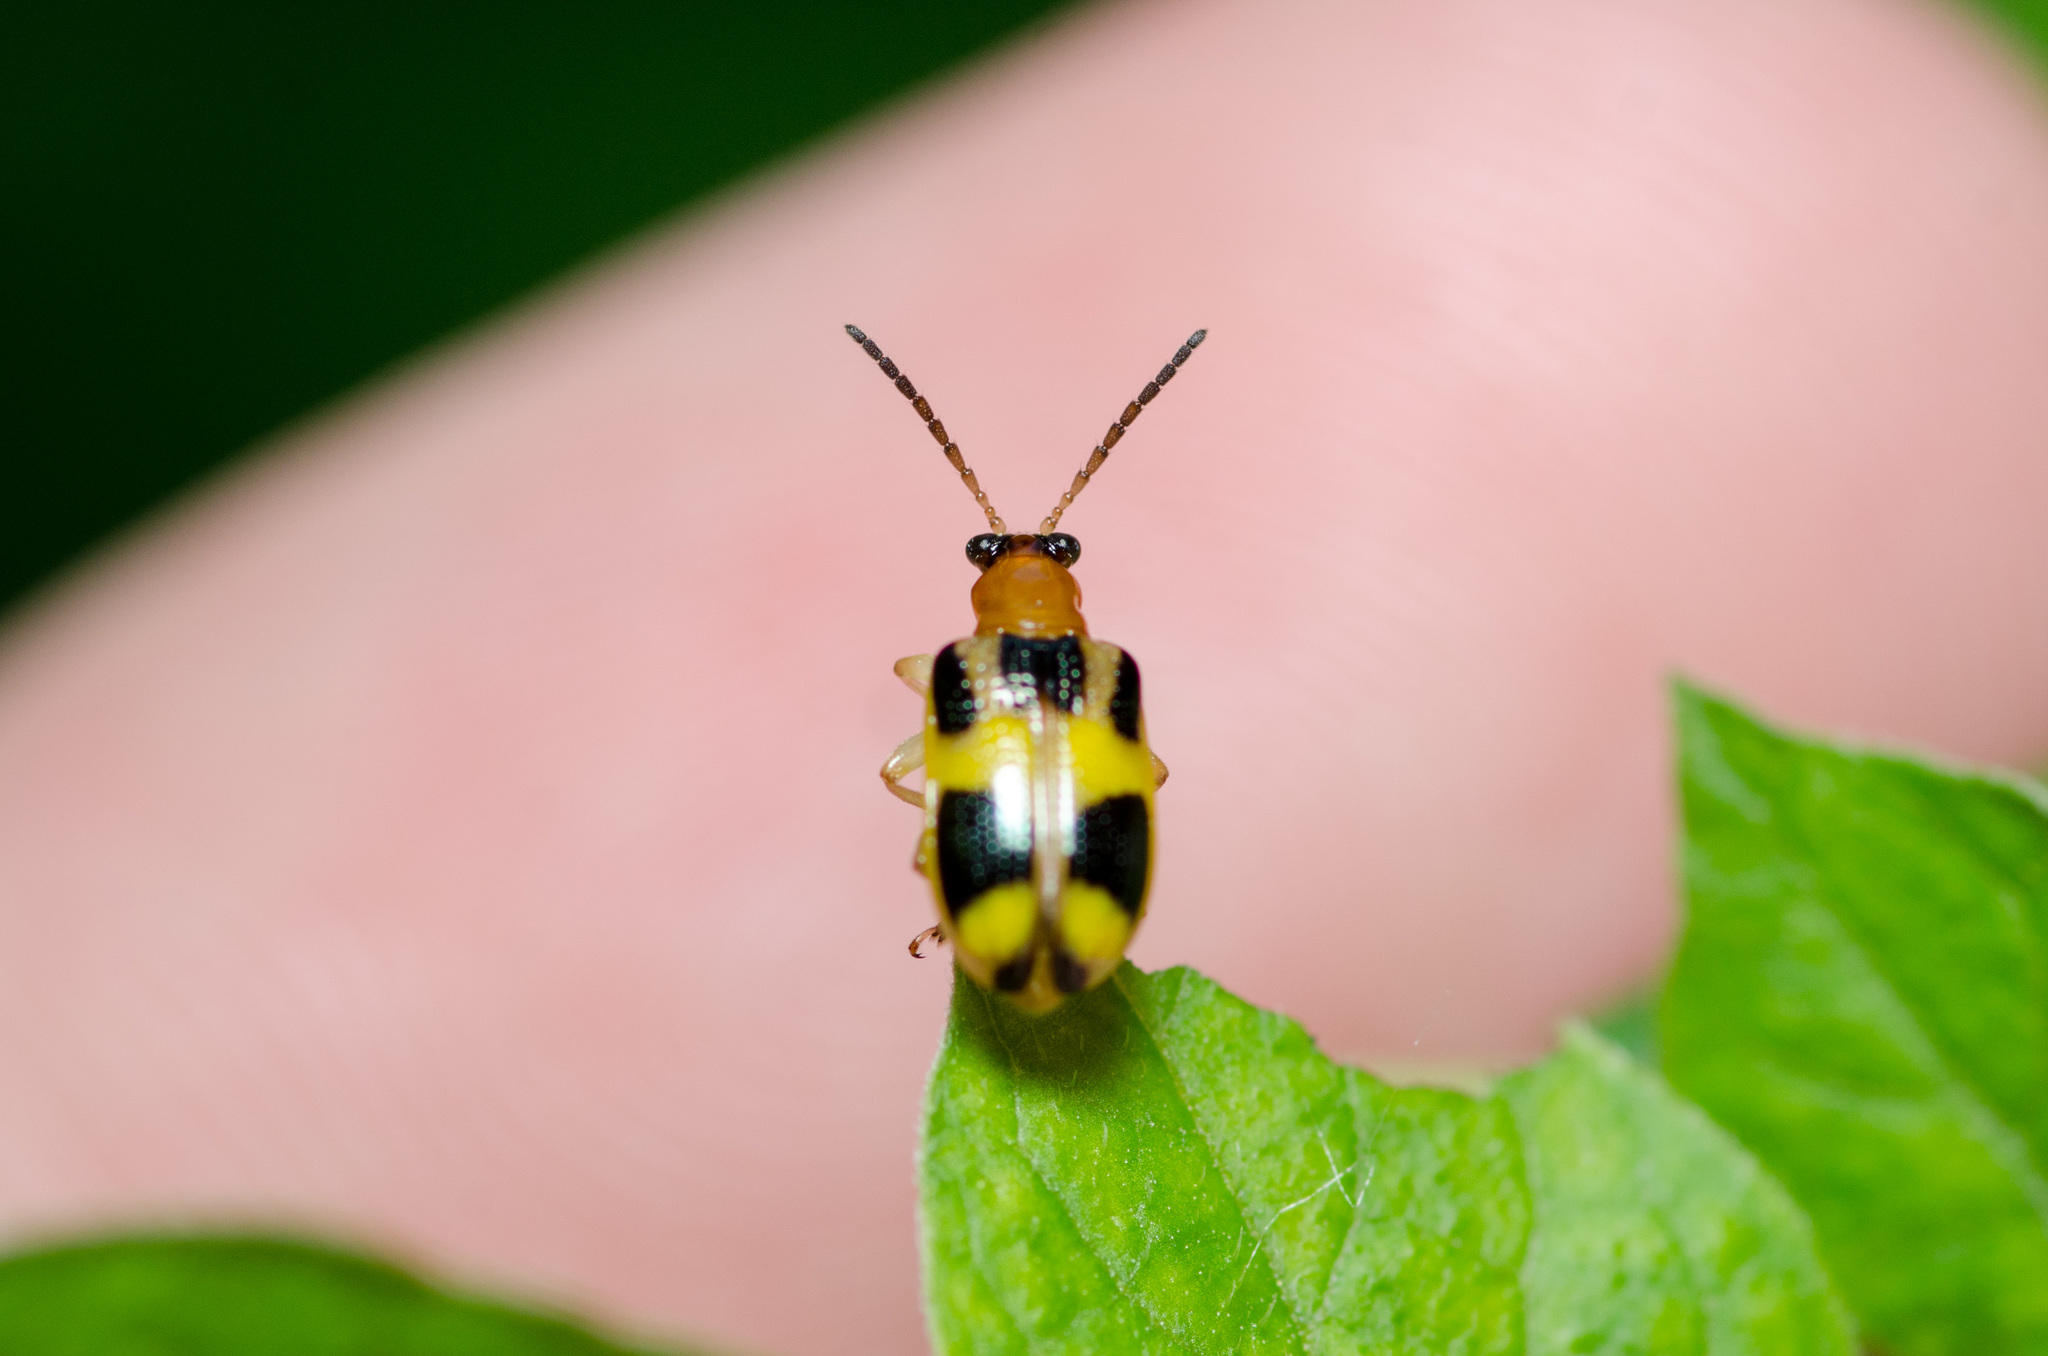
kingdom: Animalia
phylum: Arthropoda
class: Insecta
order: Coleoptera
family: Chrysomelidae
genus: Lema
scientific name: Lema opulenta
